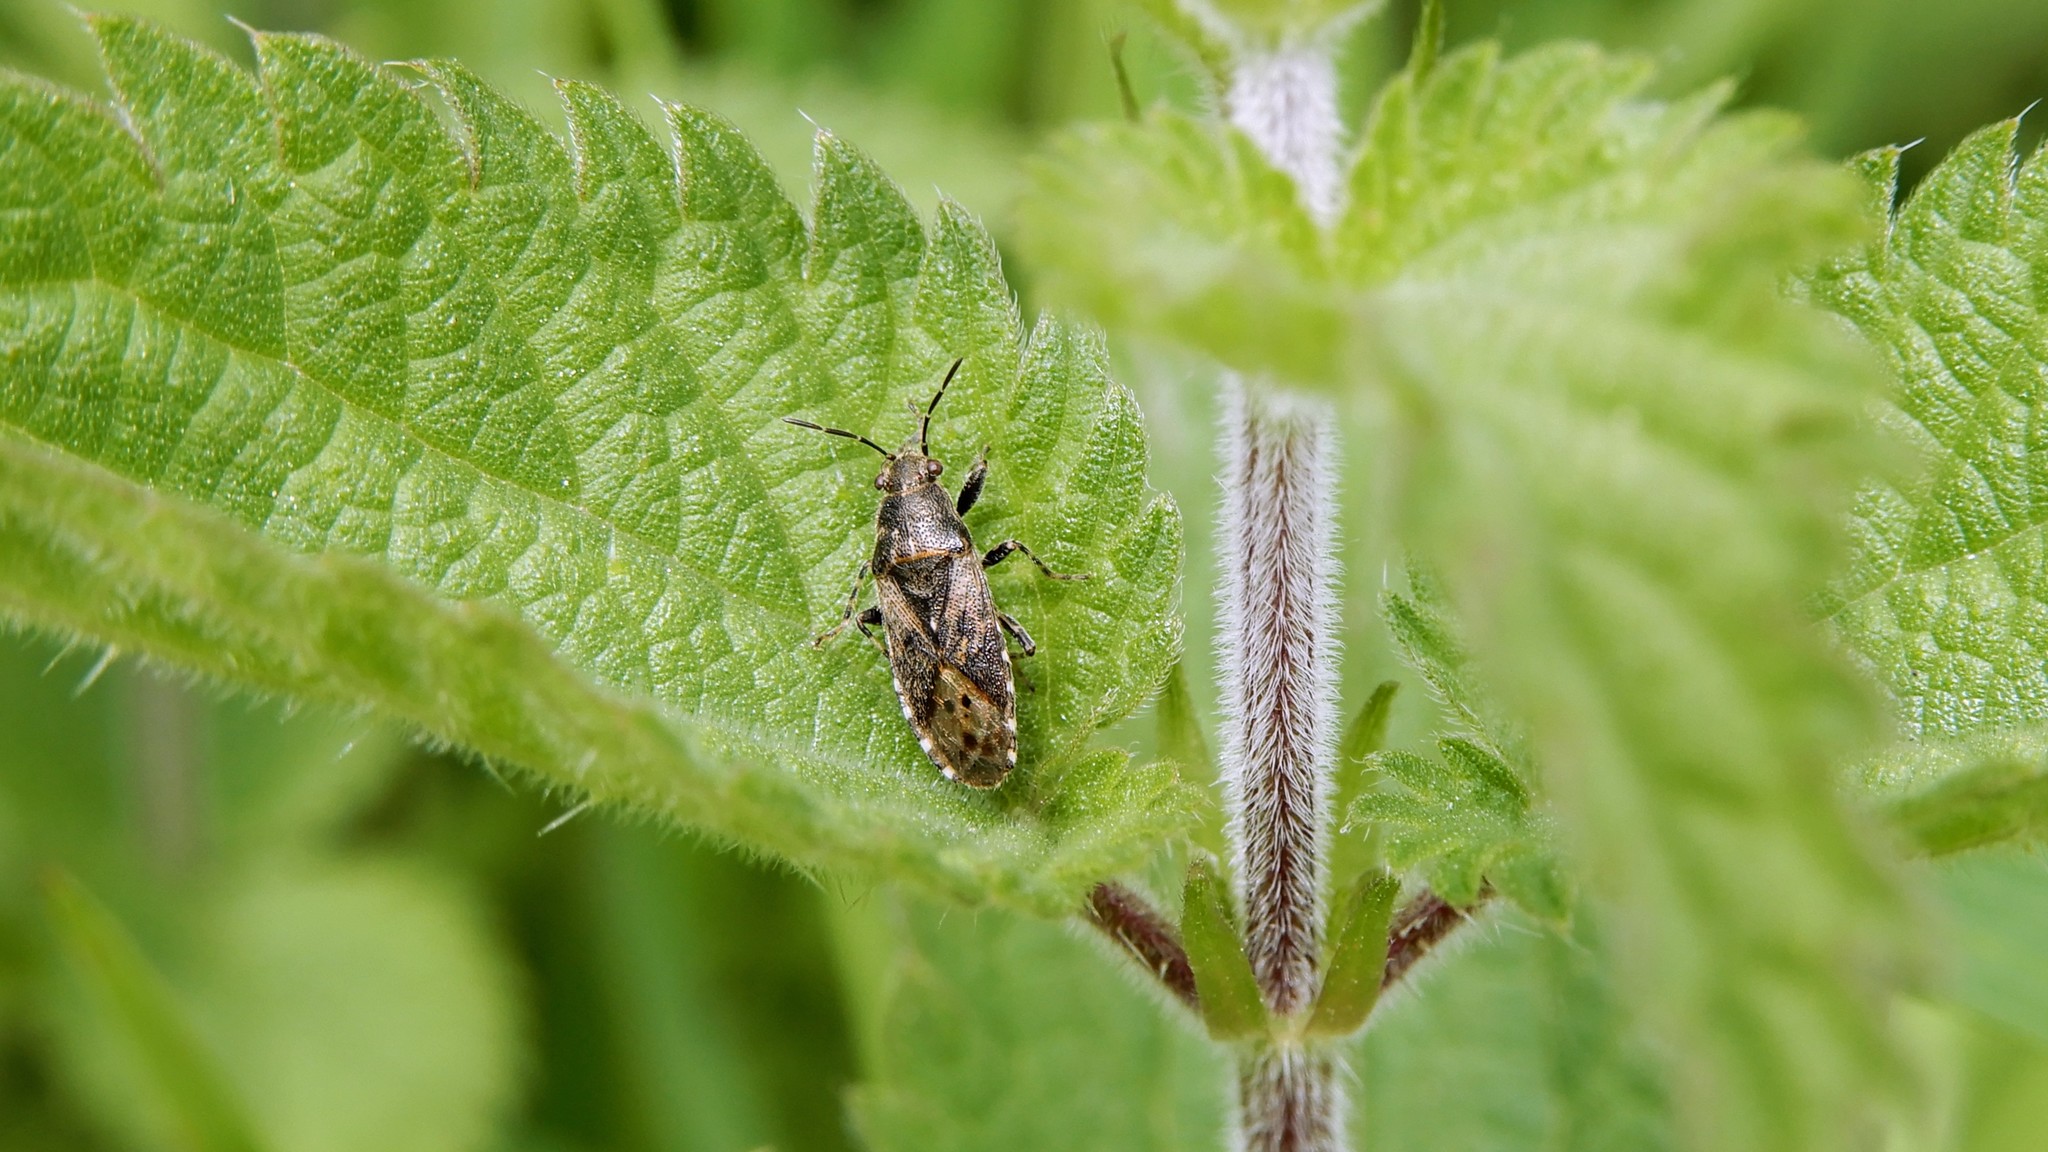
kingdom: Animalia
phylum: Arthropoda
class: Insecta
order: Hemiptera
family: Heterogastridae
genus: Heterogaster
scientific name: Heterogaster urticae
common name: Seed bug
